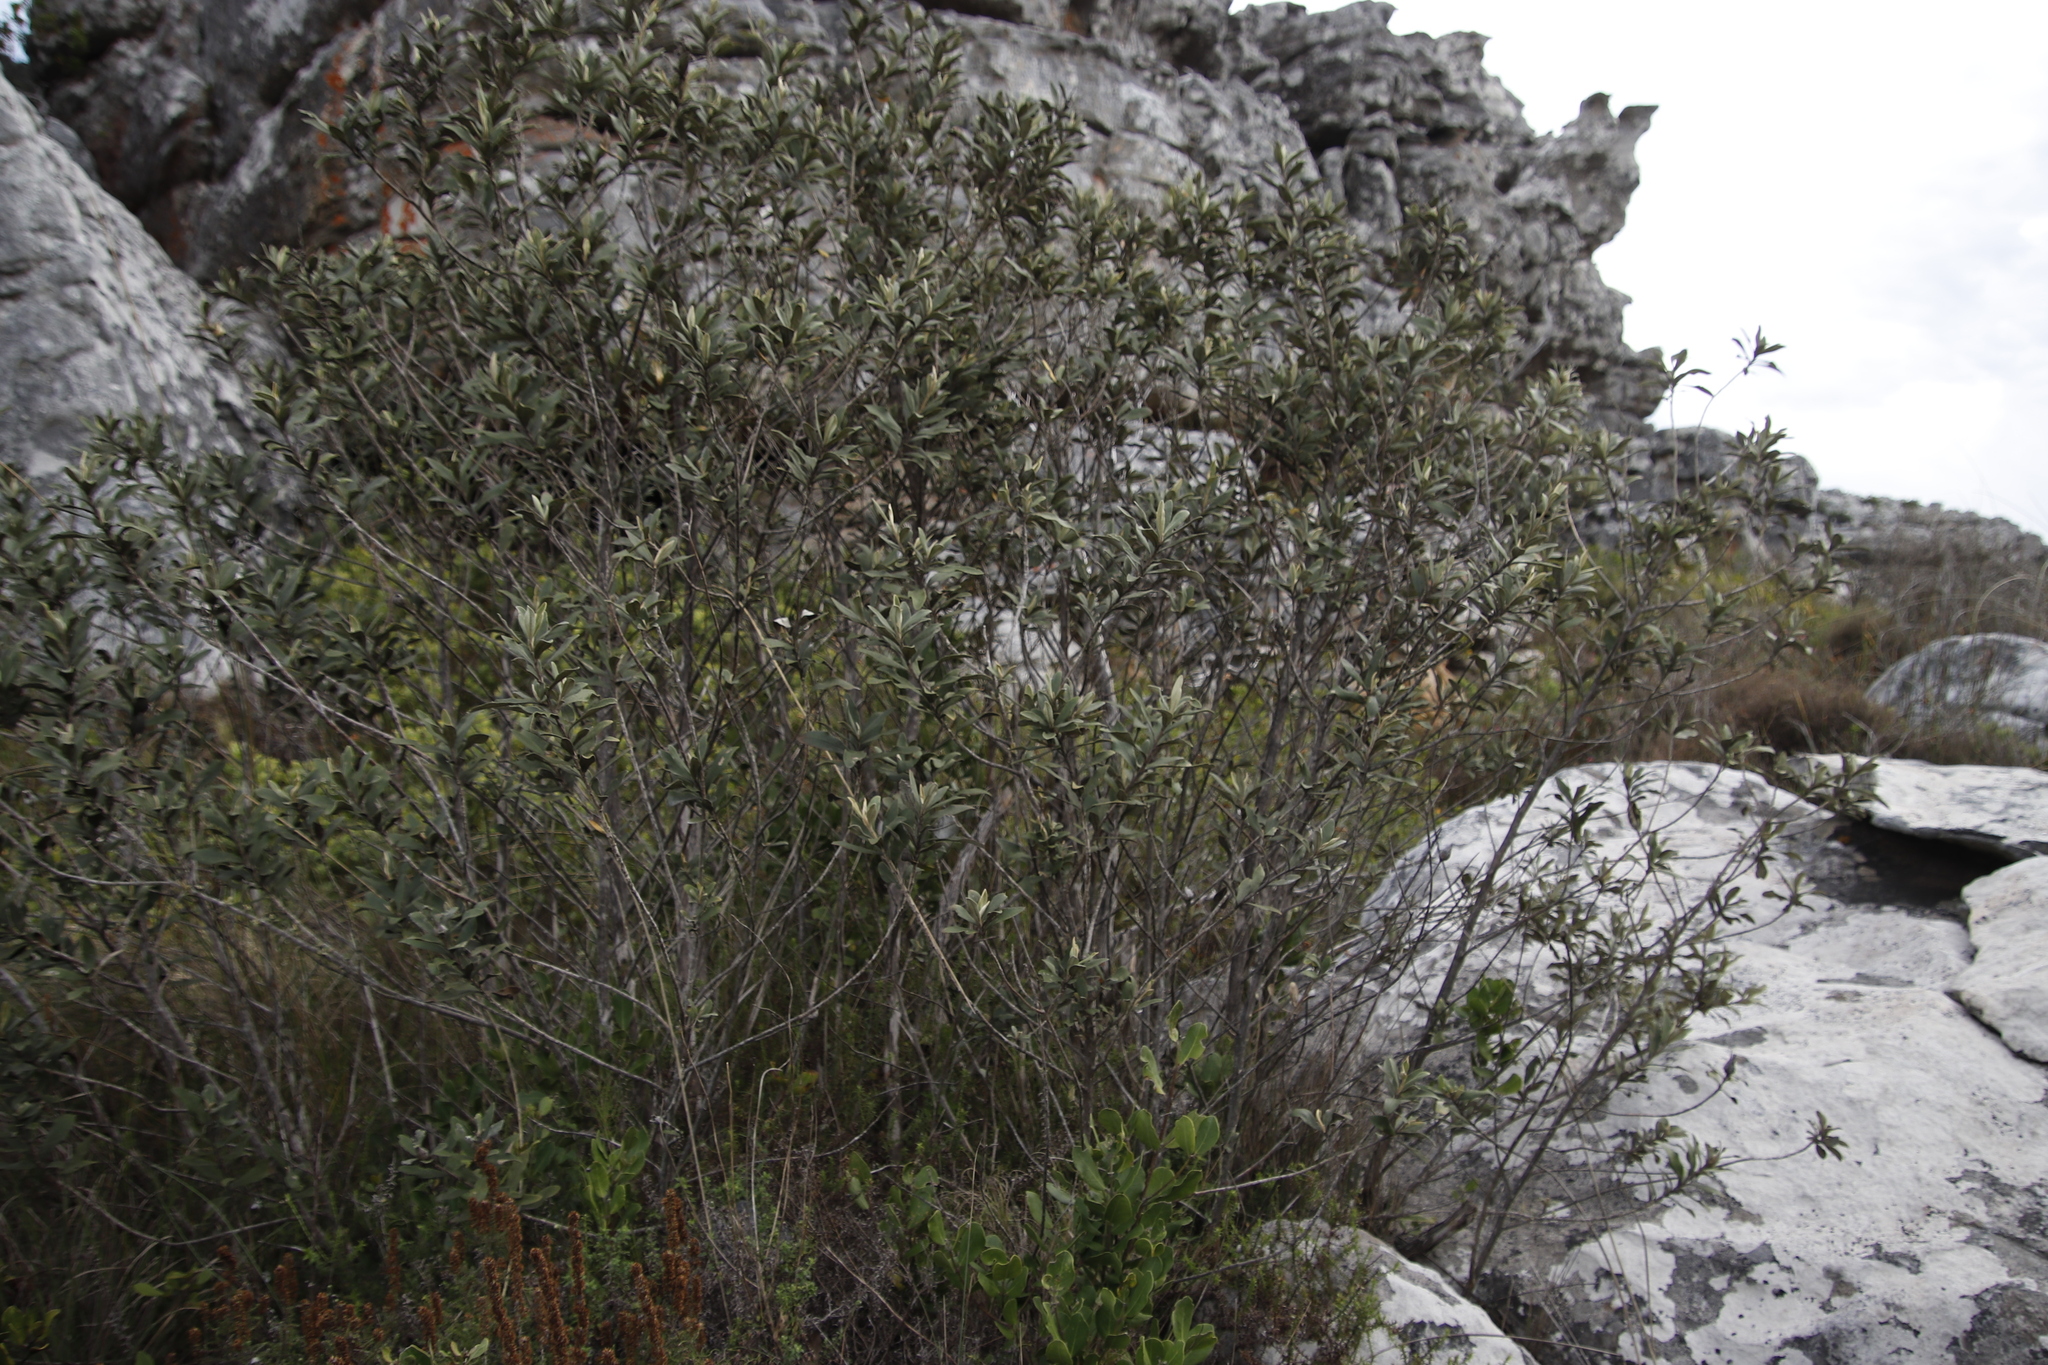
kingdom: Plantae
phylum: Tracheophyta
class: Magnoliopsida
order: Asterales
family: Asteraceae
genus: Tarchonanthus
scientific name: Tarchonanthus littoralis
